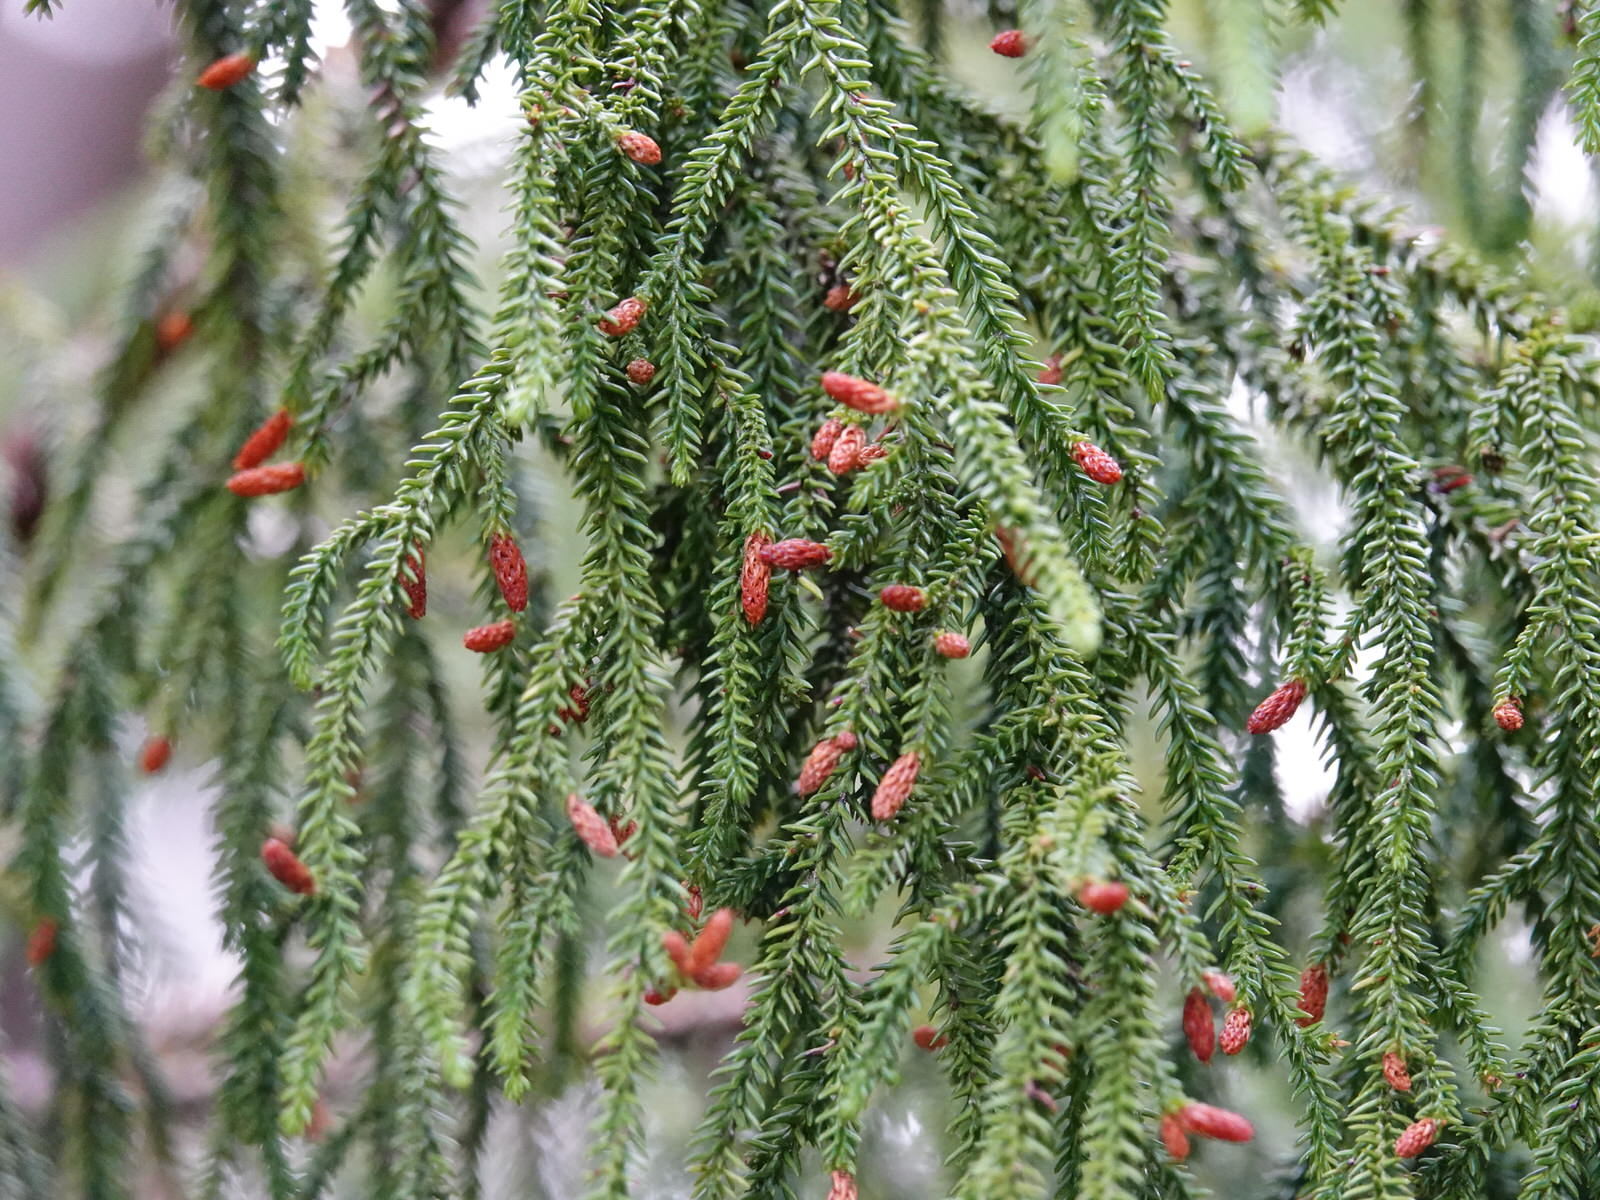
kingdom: Plantae
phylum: Tracheophyta
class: Pinopsida
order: Pinales
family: Podocarpaceae
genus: Dacrydium
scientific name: Dacrydium cupressinum
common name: Red pine
